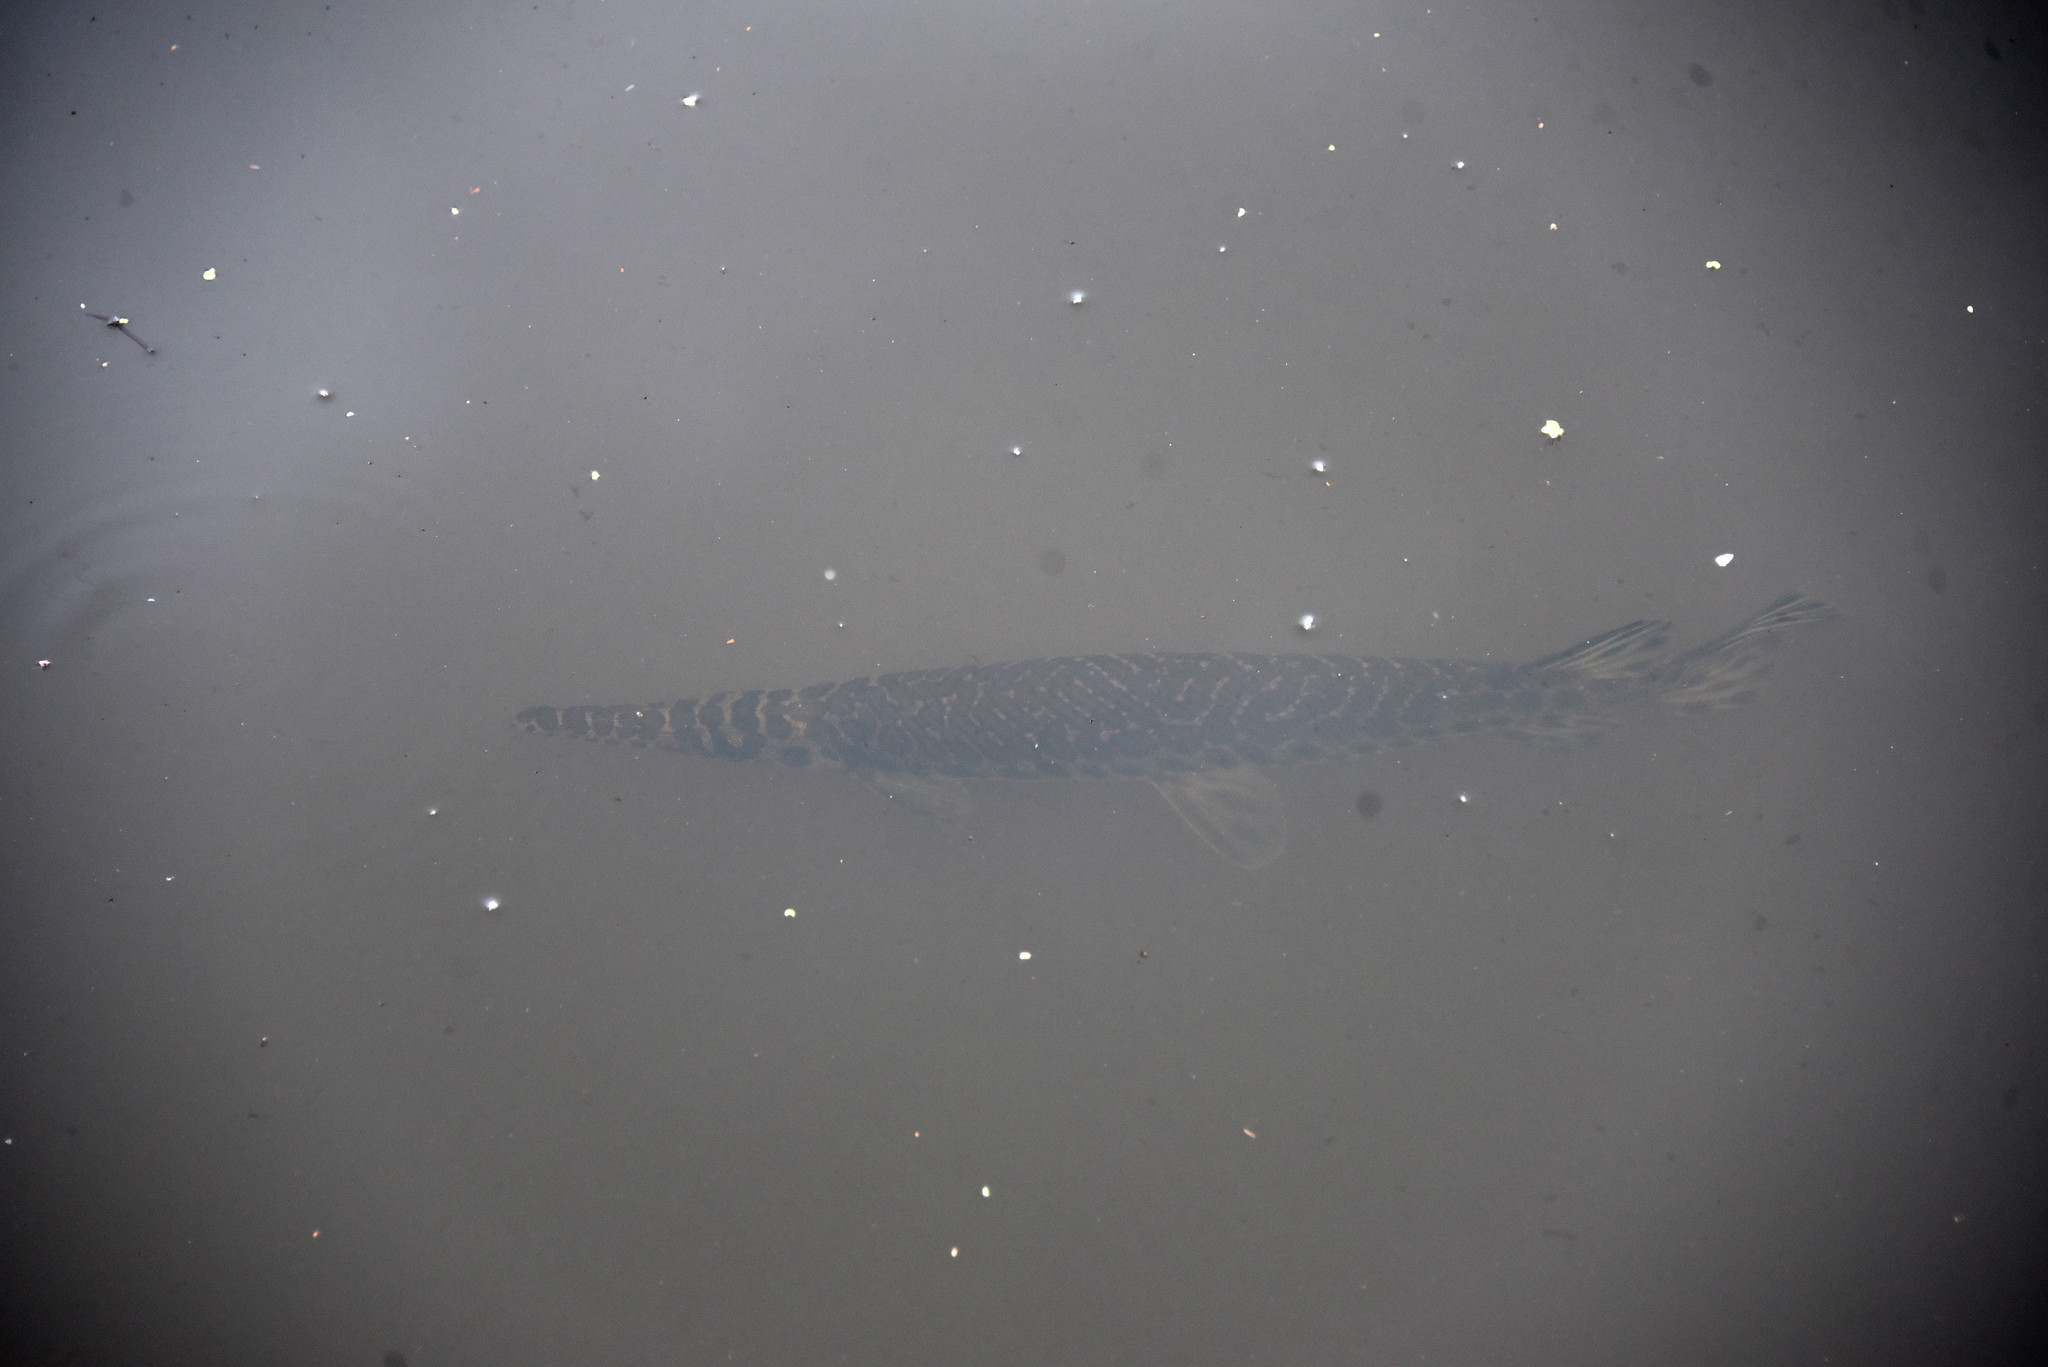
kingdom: Animalia
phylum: Chordata
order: Lepisosteiformes
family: Lepisosteidae
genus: Lepisosteus
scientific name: Lepisosteus oculatus
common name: Spotted gar
